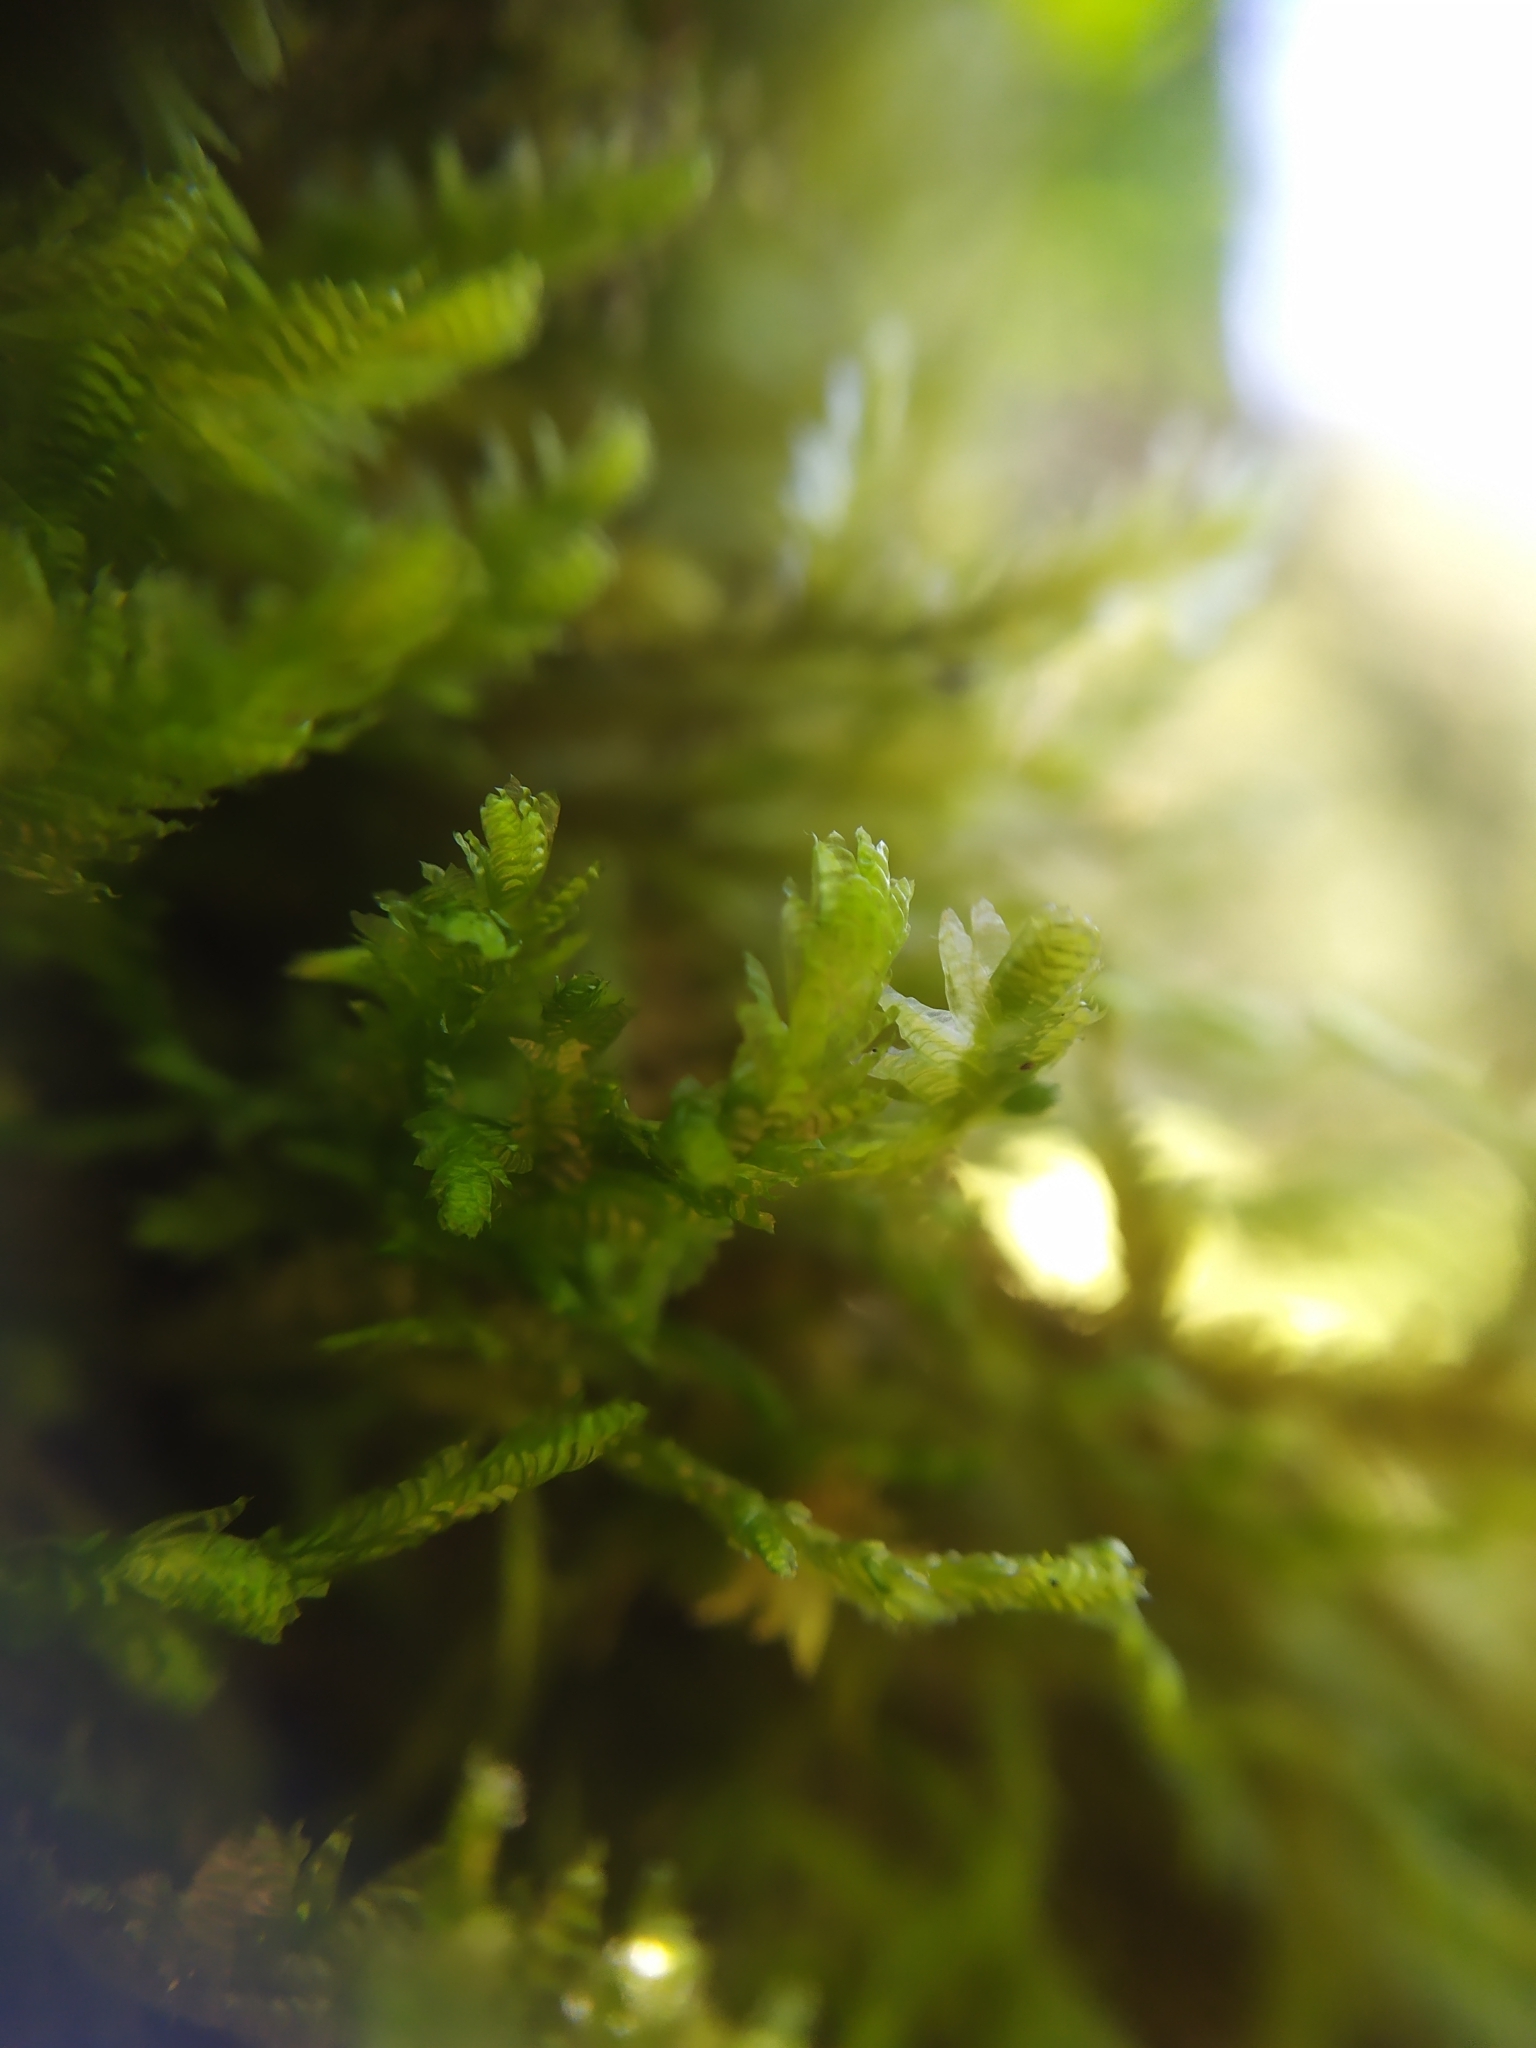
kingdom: Plantae
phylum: Bryophyta
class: Bryopsida
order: Hypnales
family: Neckeraceae
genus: Exsertotheca
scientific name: Exsertotheca crispa
